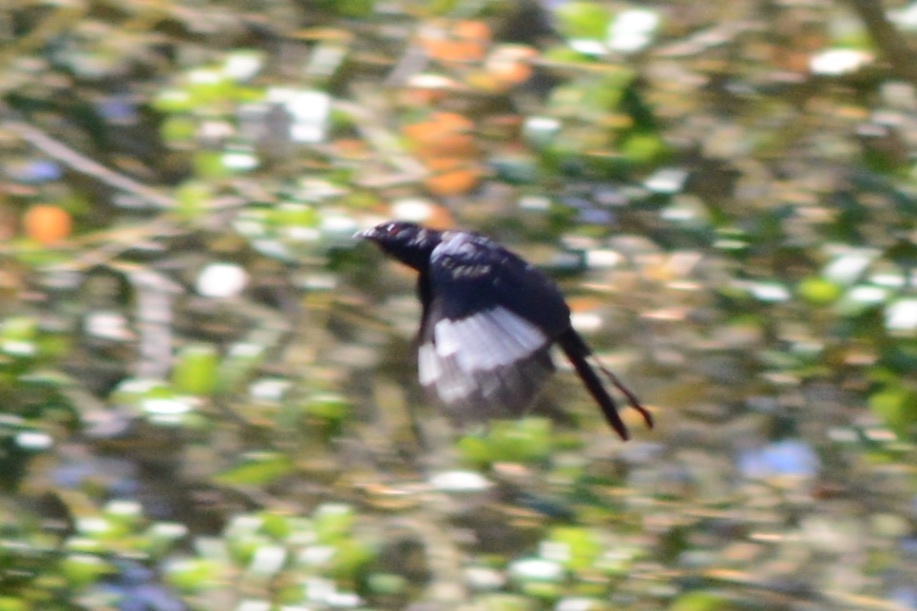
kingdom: Animalia
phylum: Chordata
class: Aves
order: Passeriformes
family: Ptilogonatidae
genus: Phainopepla
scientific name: Phainopepla nitens
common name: Phainopepla
